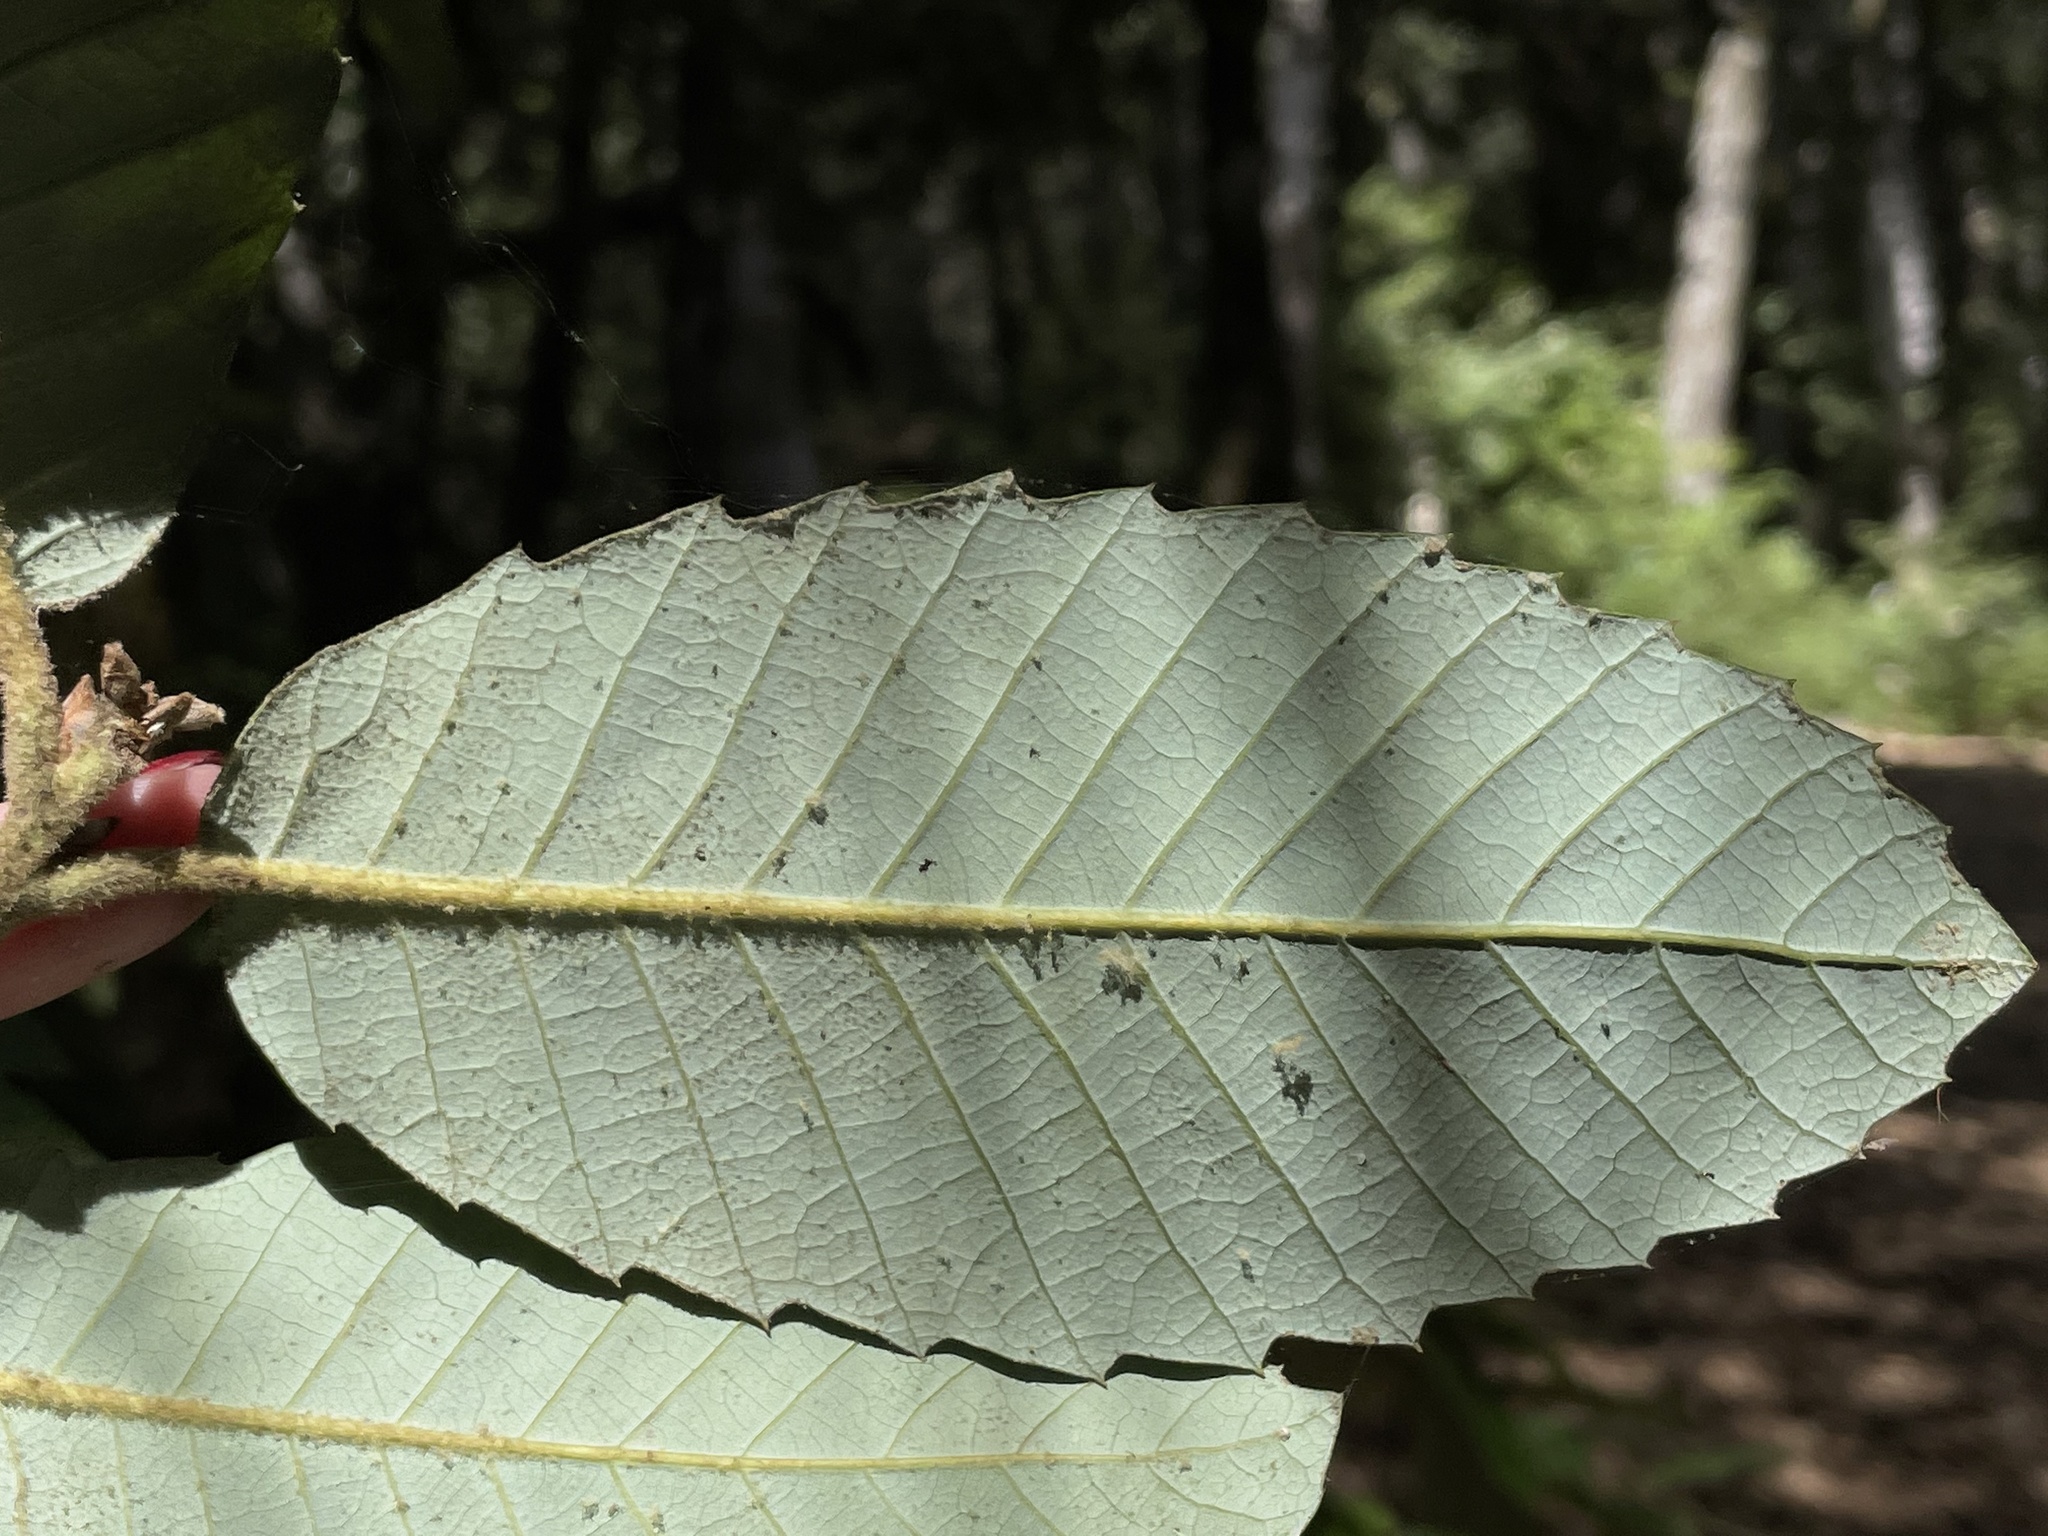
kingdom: Plantae
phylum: Tracheophyta
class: Magnoliopsida
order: Fagales
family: Fagaceae
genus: Notholithocarpus
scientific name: Notholithocarpus densiflorus
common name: Tan bark oak
